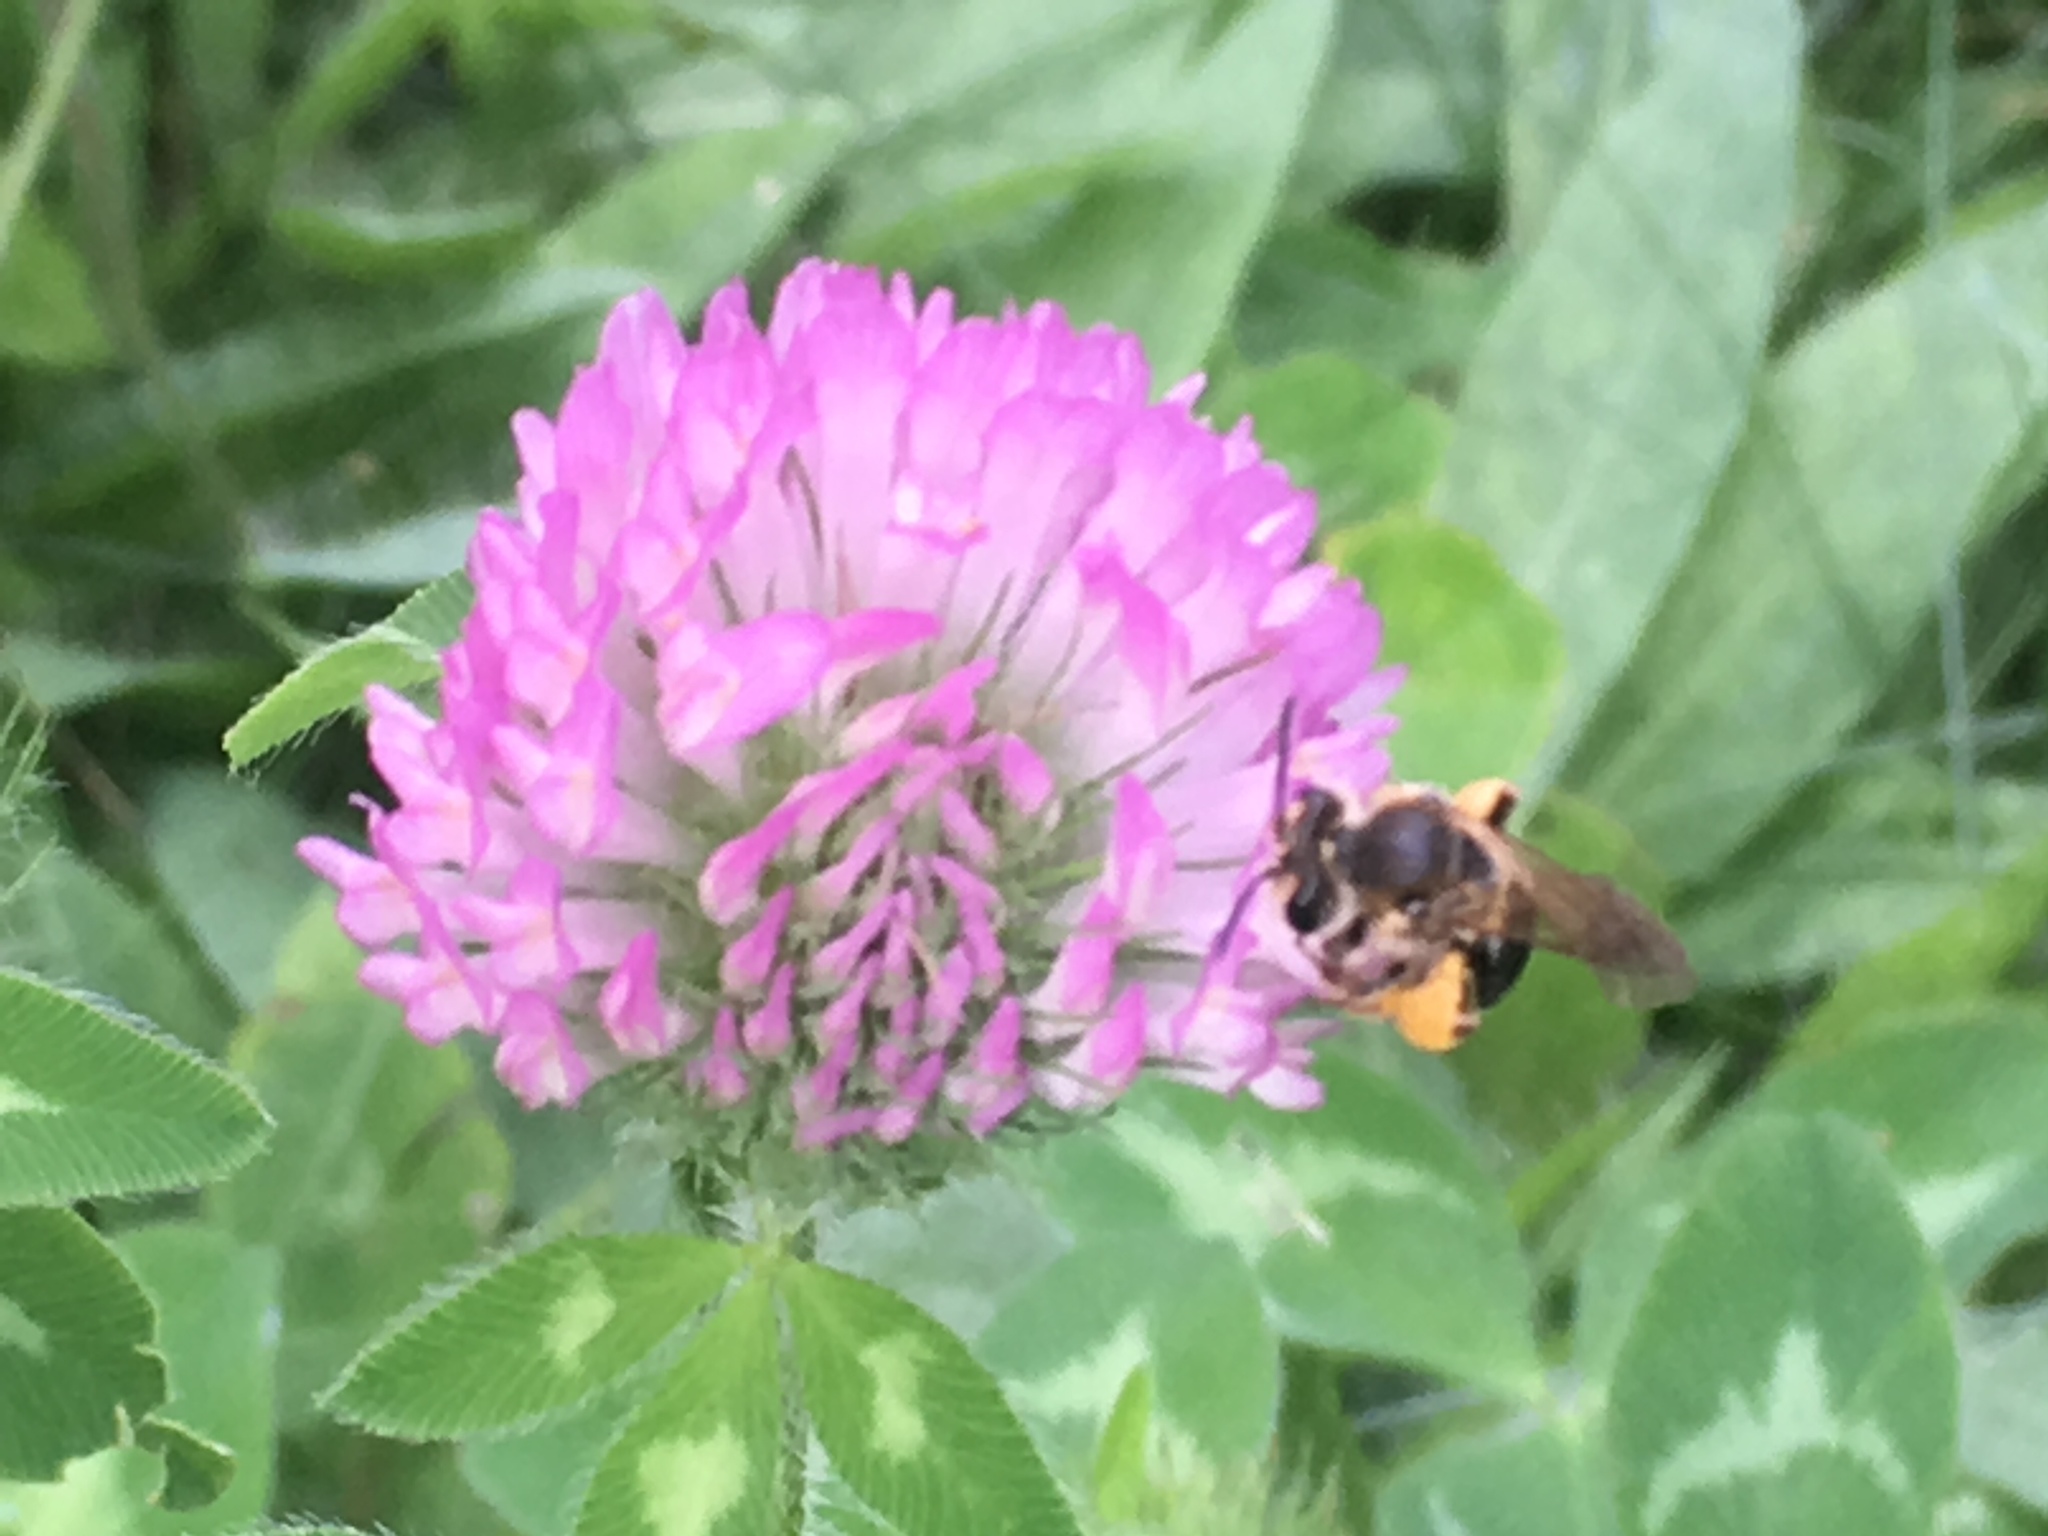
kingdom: Animalia
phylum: Arthropoda
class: Insecta
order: Hymenoptera
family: Andrenidae
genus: Andrena
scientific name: Andrena wilkella
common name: Wilke's mining bee
